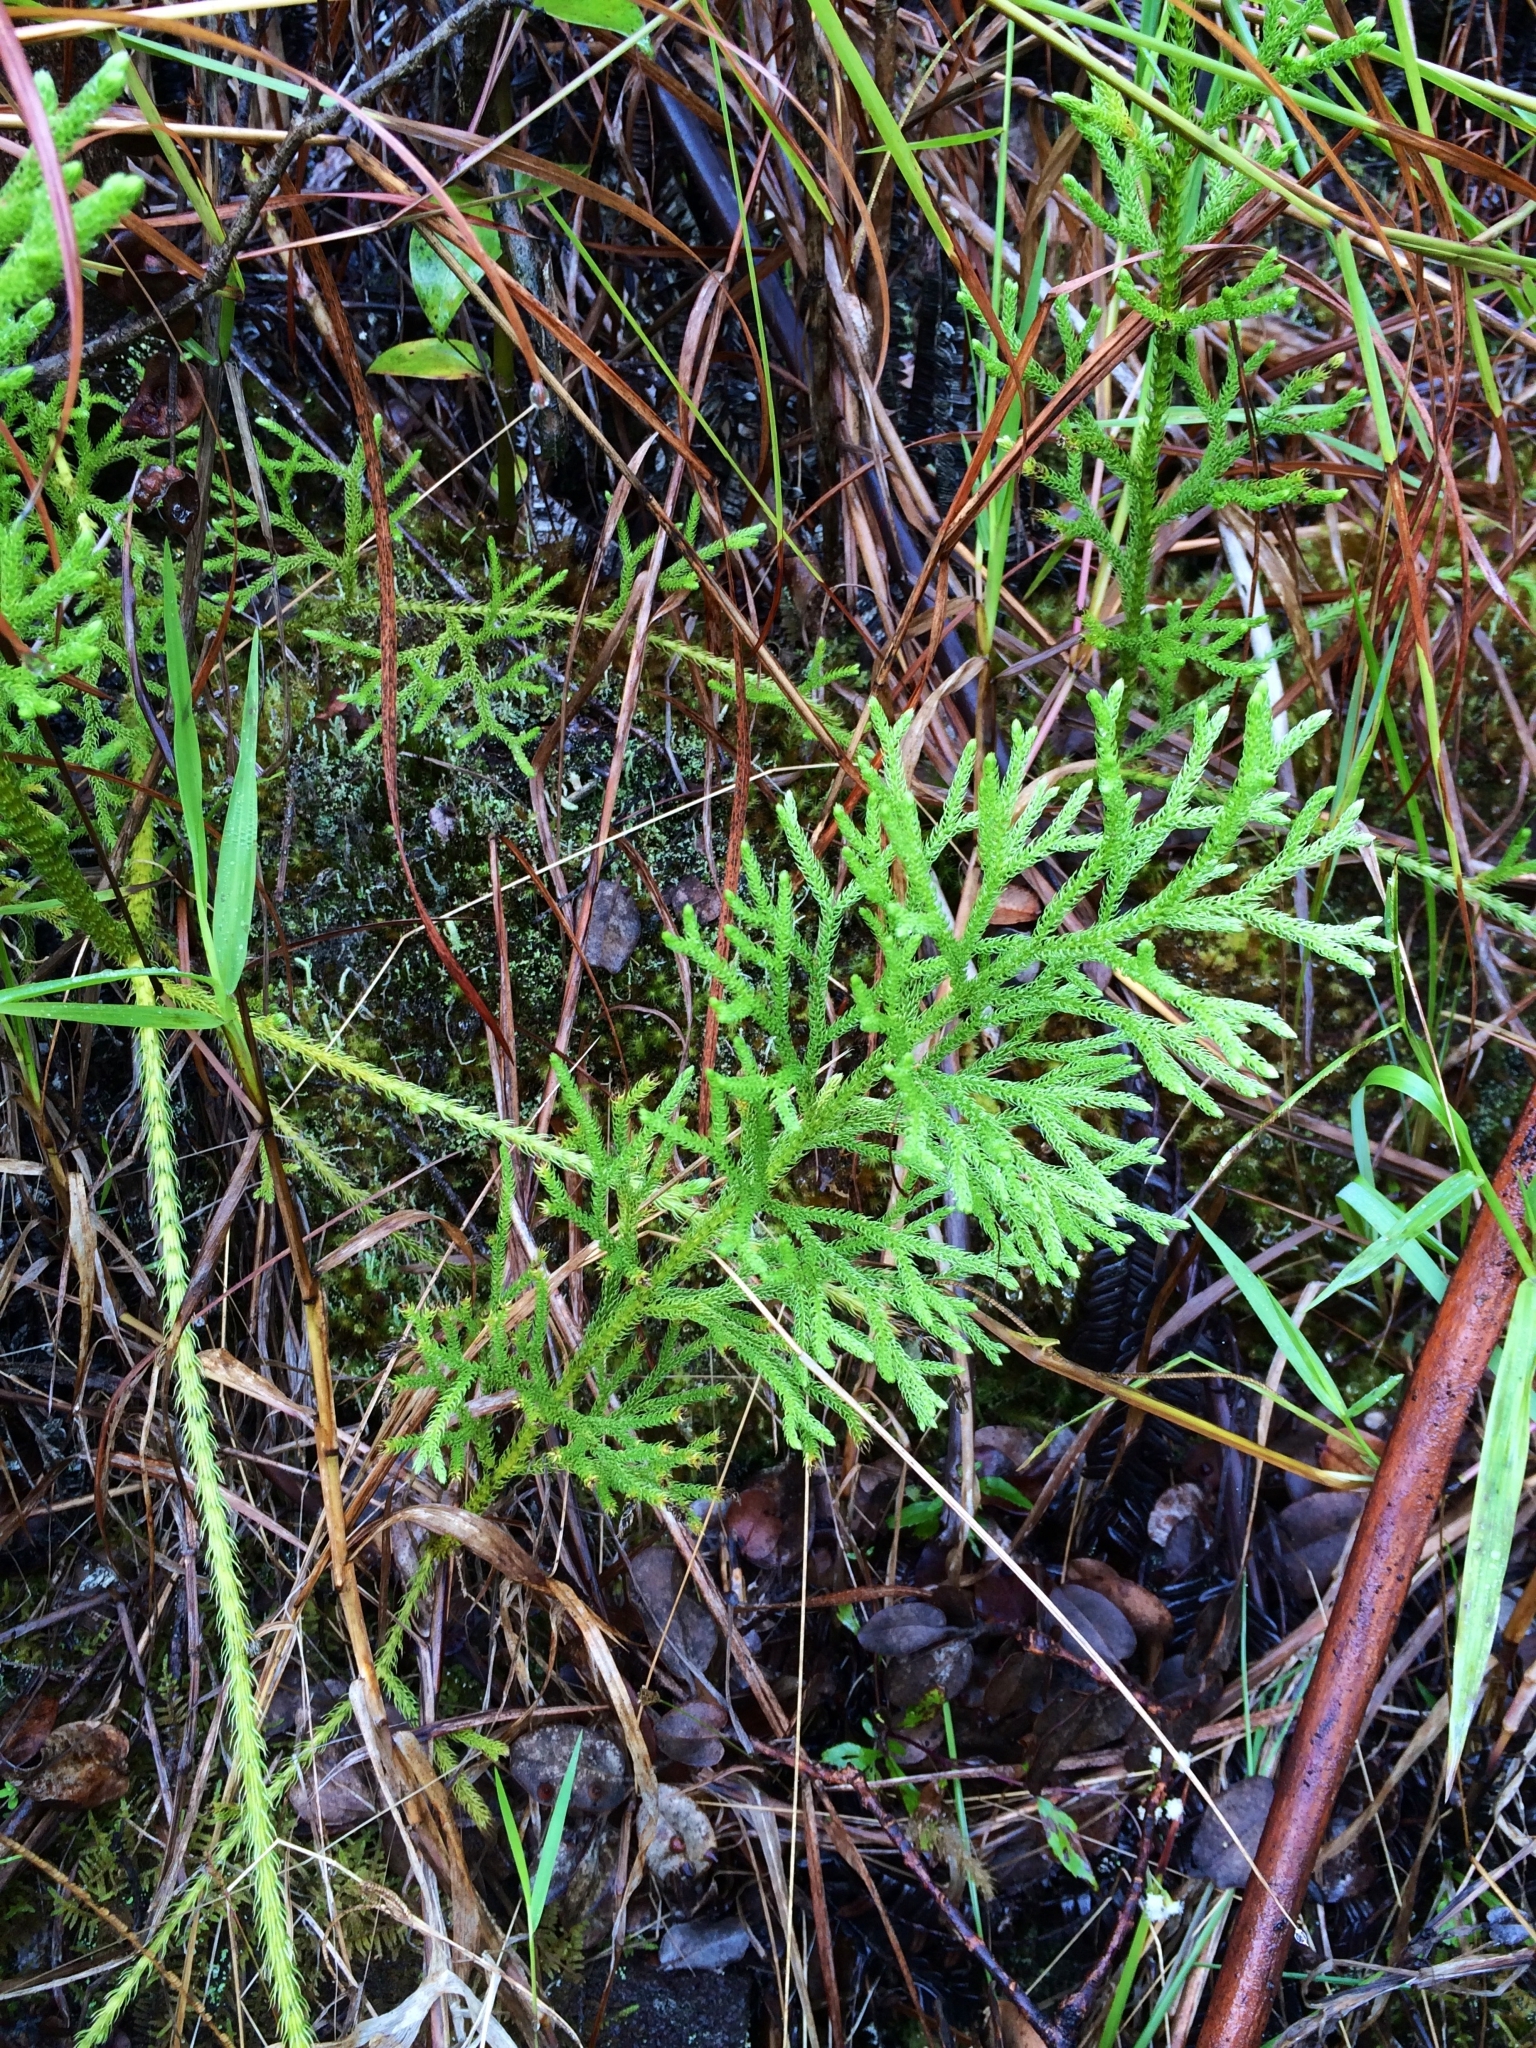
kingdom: Plantae
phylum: Tracheophyta
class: Lycopodiopsida
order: Lycopodiales
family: Lycopodiaceae
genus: Palhinhaea
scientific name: Palhinhaea cernua
